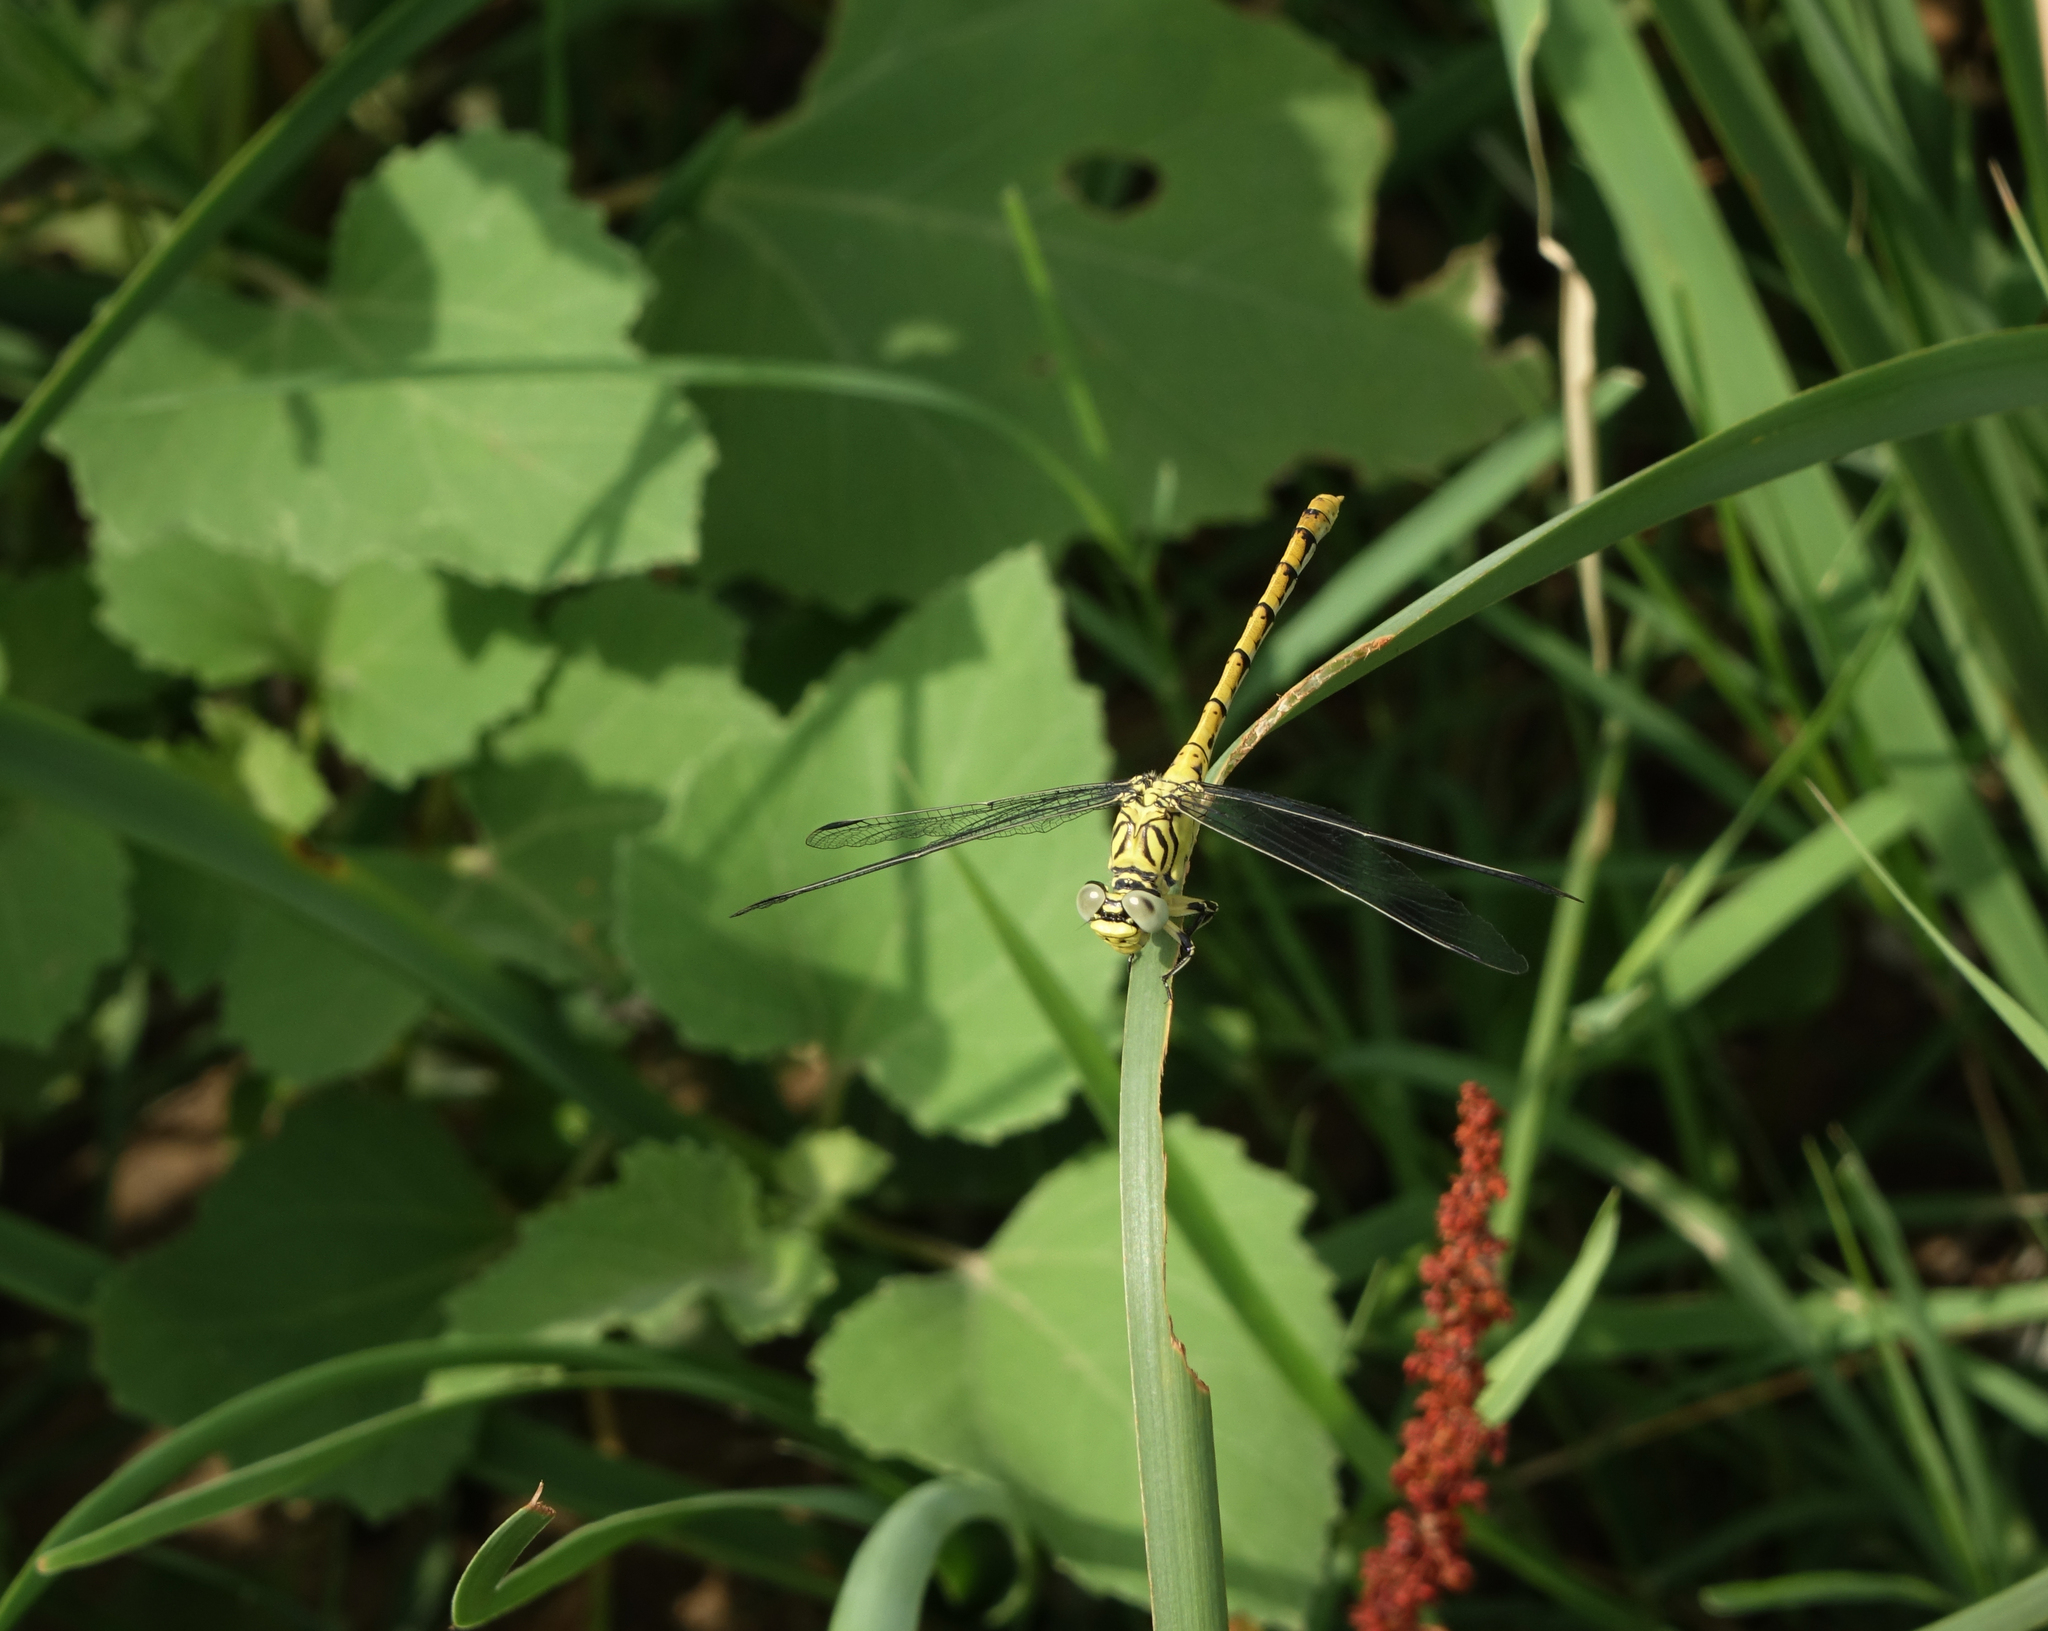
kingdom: Animalia
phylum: Arthropoda
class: Insecta
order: Odonata
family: Gomphidae
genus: Onychogomphus
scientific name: Onychogomphus forcipatus
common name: Small pincertail
